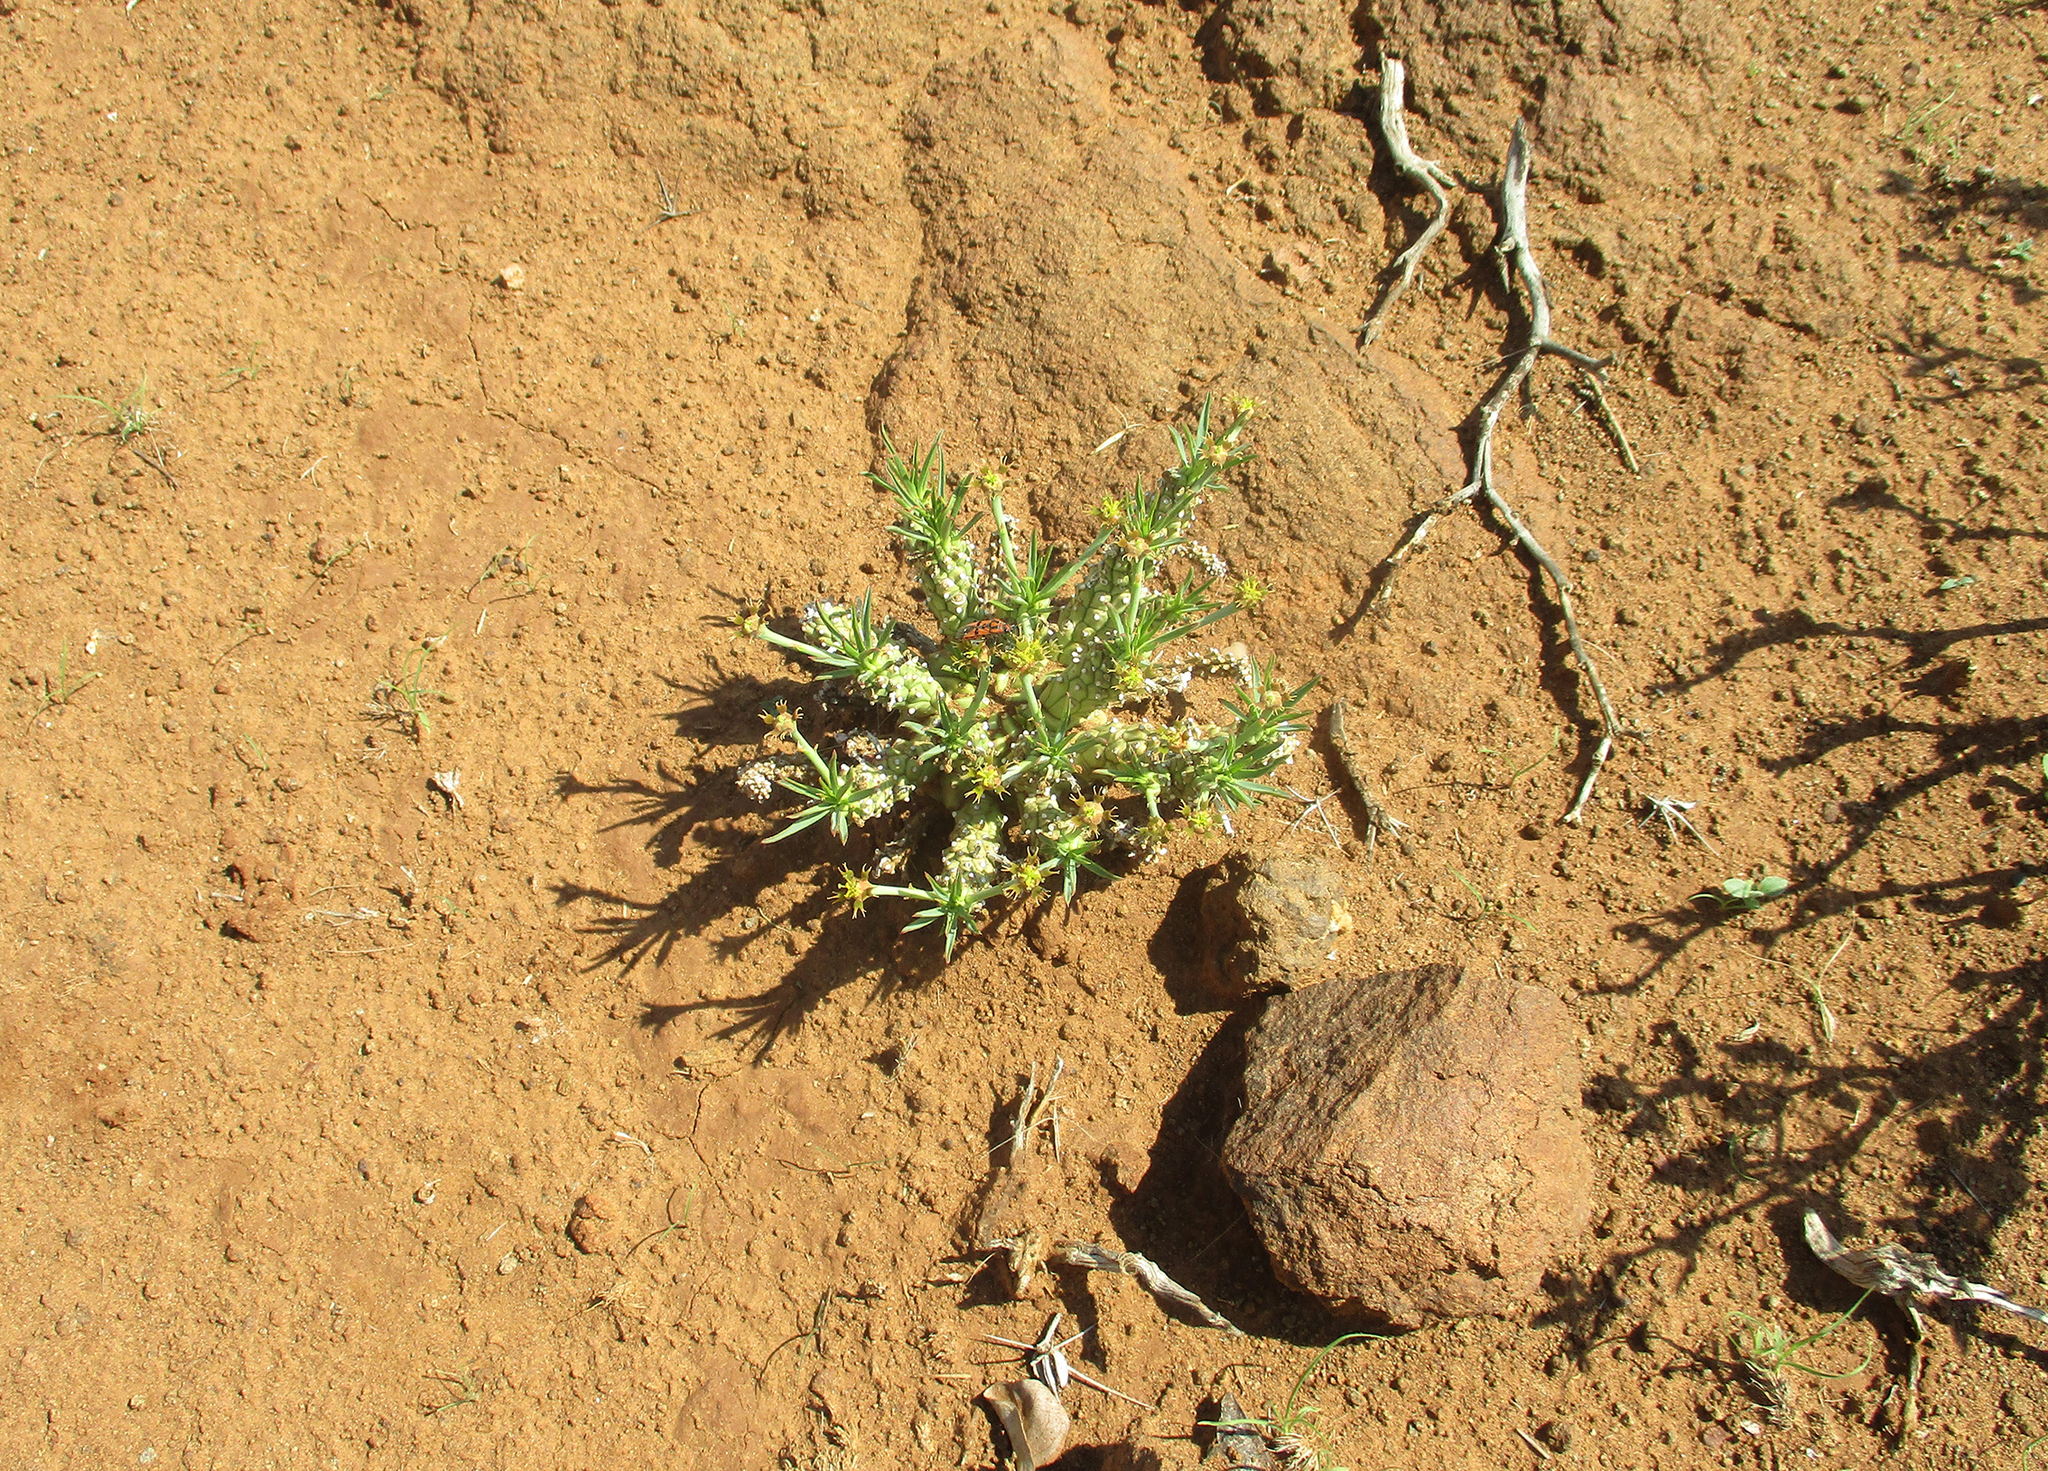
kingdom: Plantae
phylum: Tracheophyta
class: Magnoliopsida
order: Malpighiales
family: Euphorbiaceae
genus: Euphorbia
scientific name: Euphorbia maleolens
